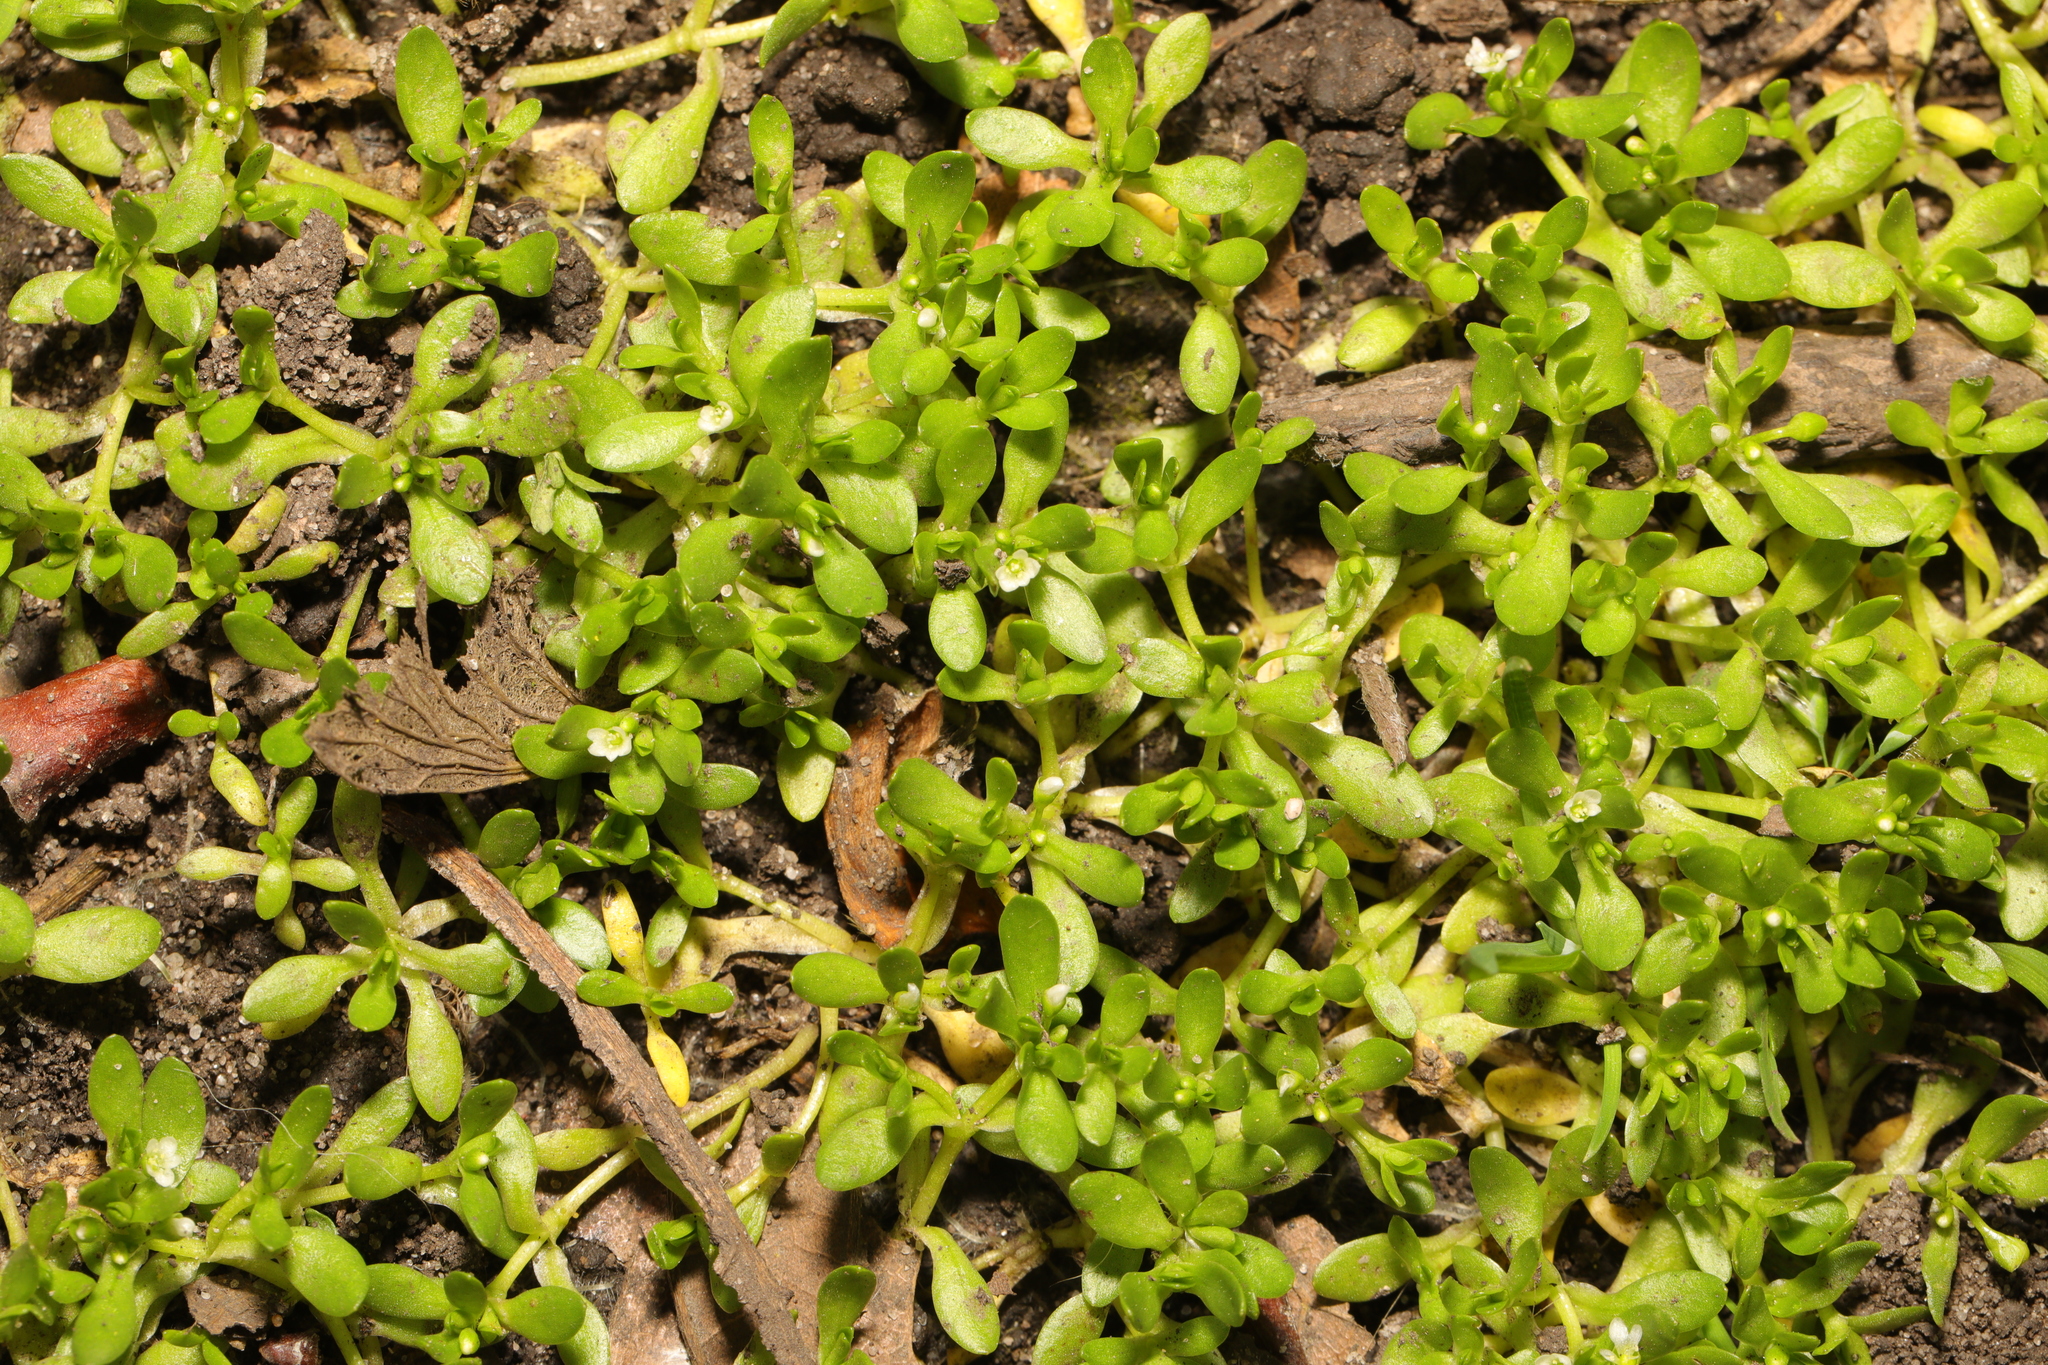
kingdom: Plantae
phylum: Tracheophyta
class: Magnoliopsida
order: Caryophyllales
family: Montiaceae
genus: Montia
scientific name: Montia fontana
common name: Blinks
